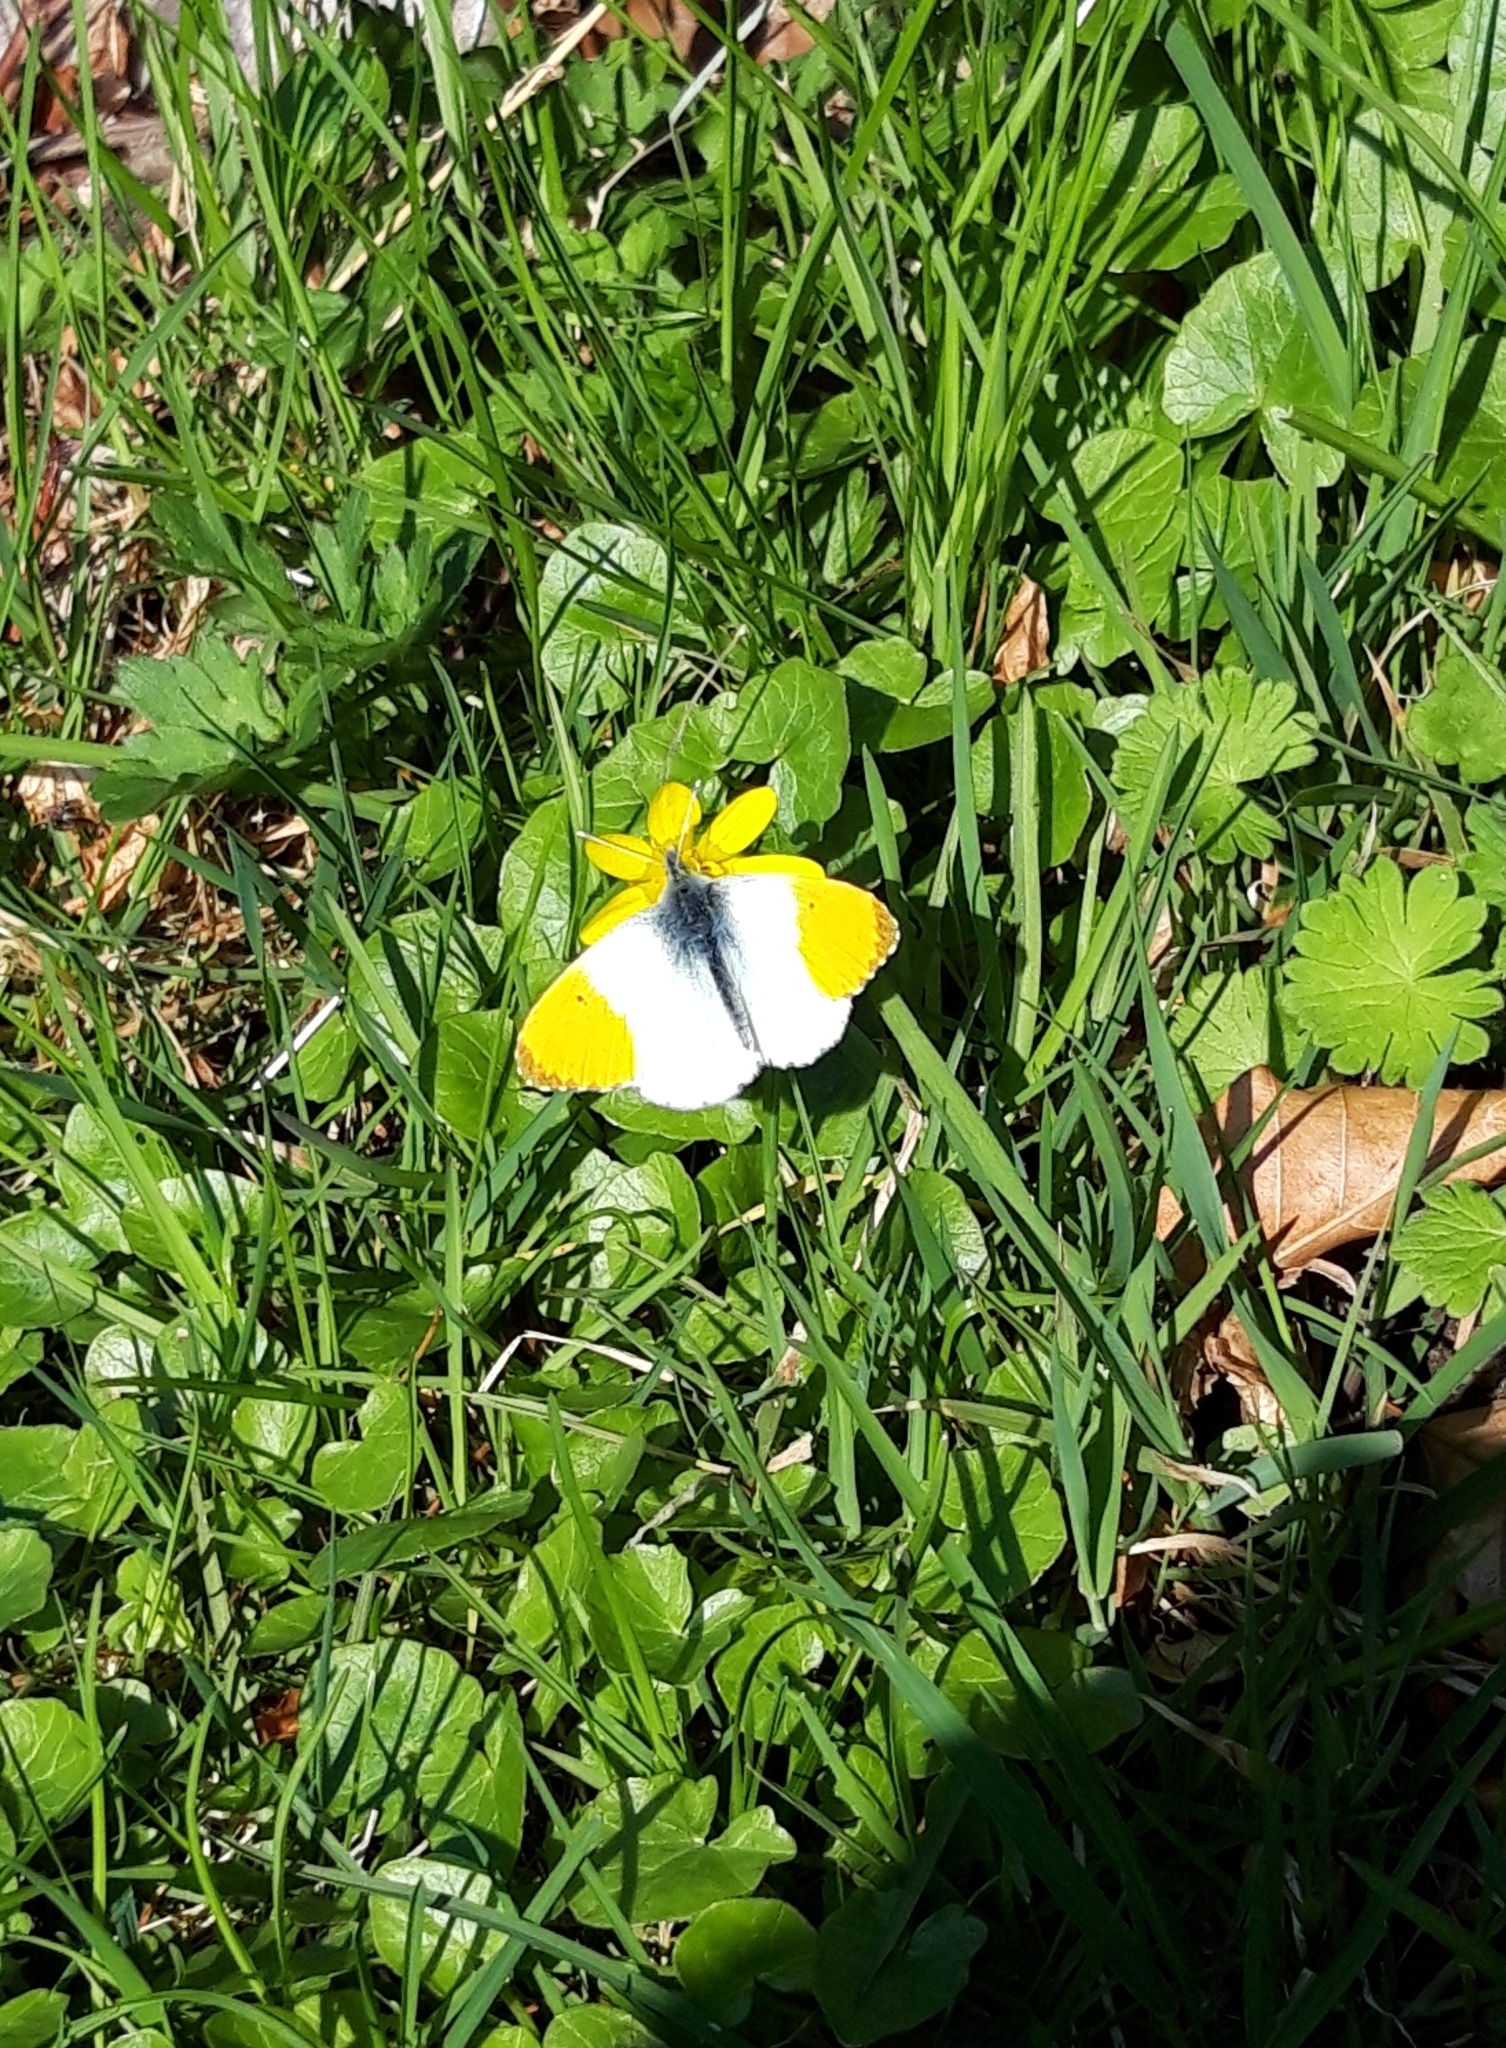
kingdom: Animalia
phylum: Arthropoda
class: Insecta
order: Lepidoptera
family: Pieridae
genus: Anthocharis
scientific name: Anthocharis cardamines
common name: Orange-tip
